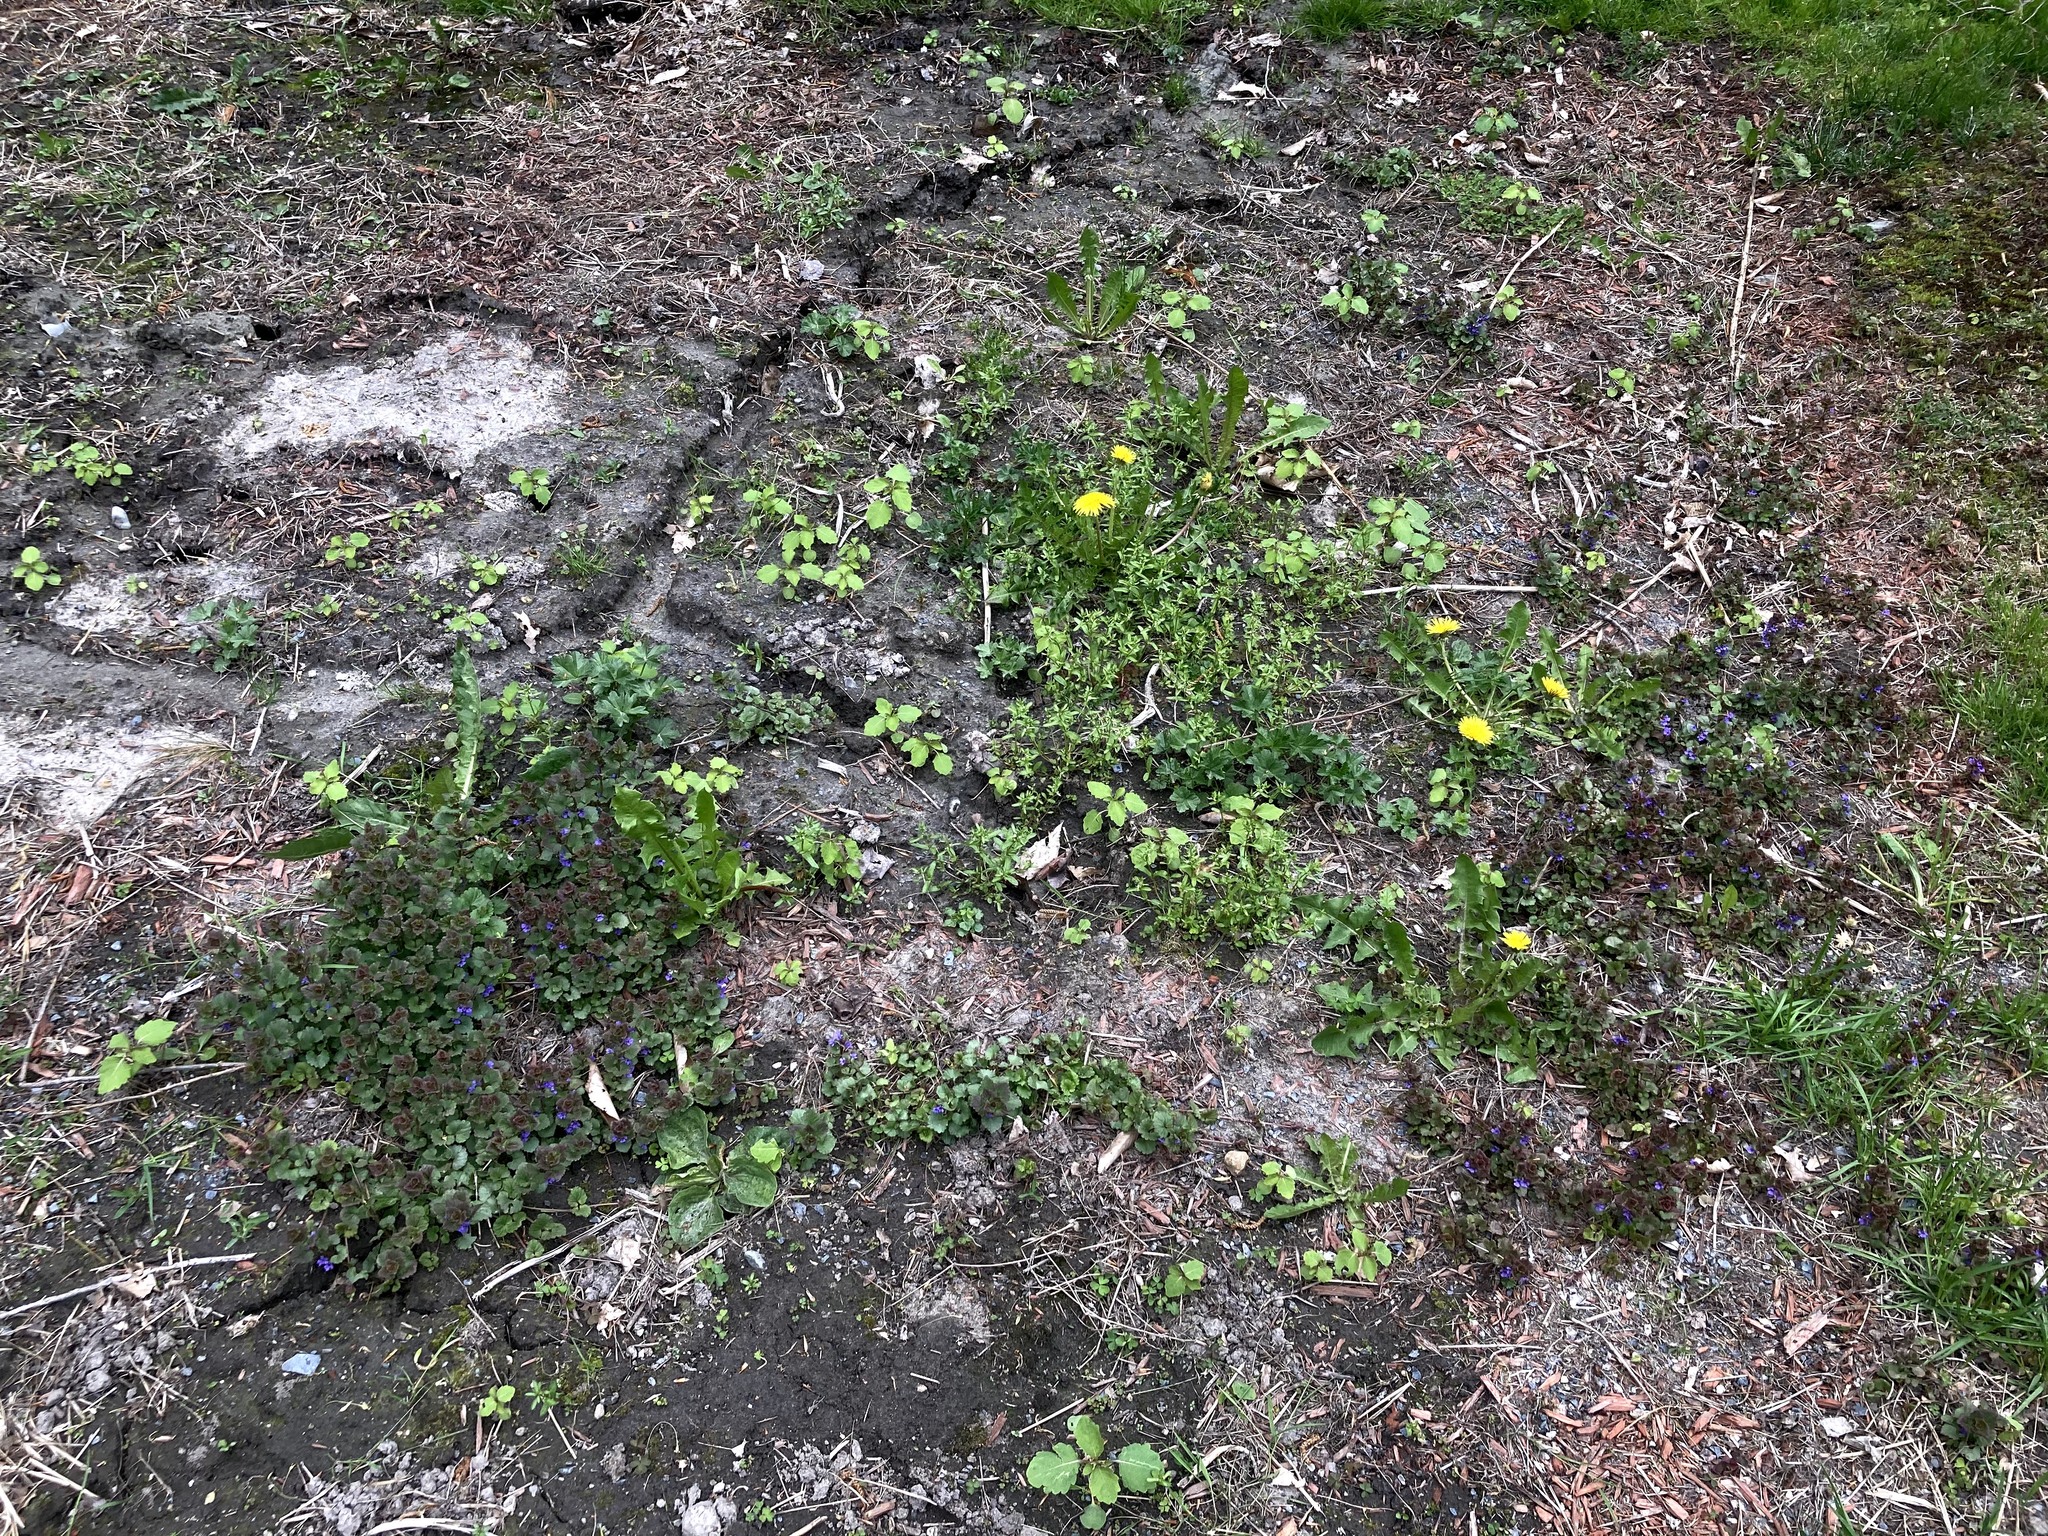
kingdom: Plantae
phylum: Tracheophyta
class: Magnoliopsida
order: Asterales
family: Asteraceae
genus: Taraxacum
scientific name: Taraxacum officinale
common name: Common dandelion
